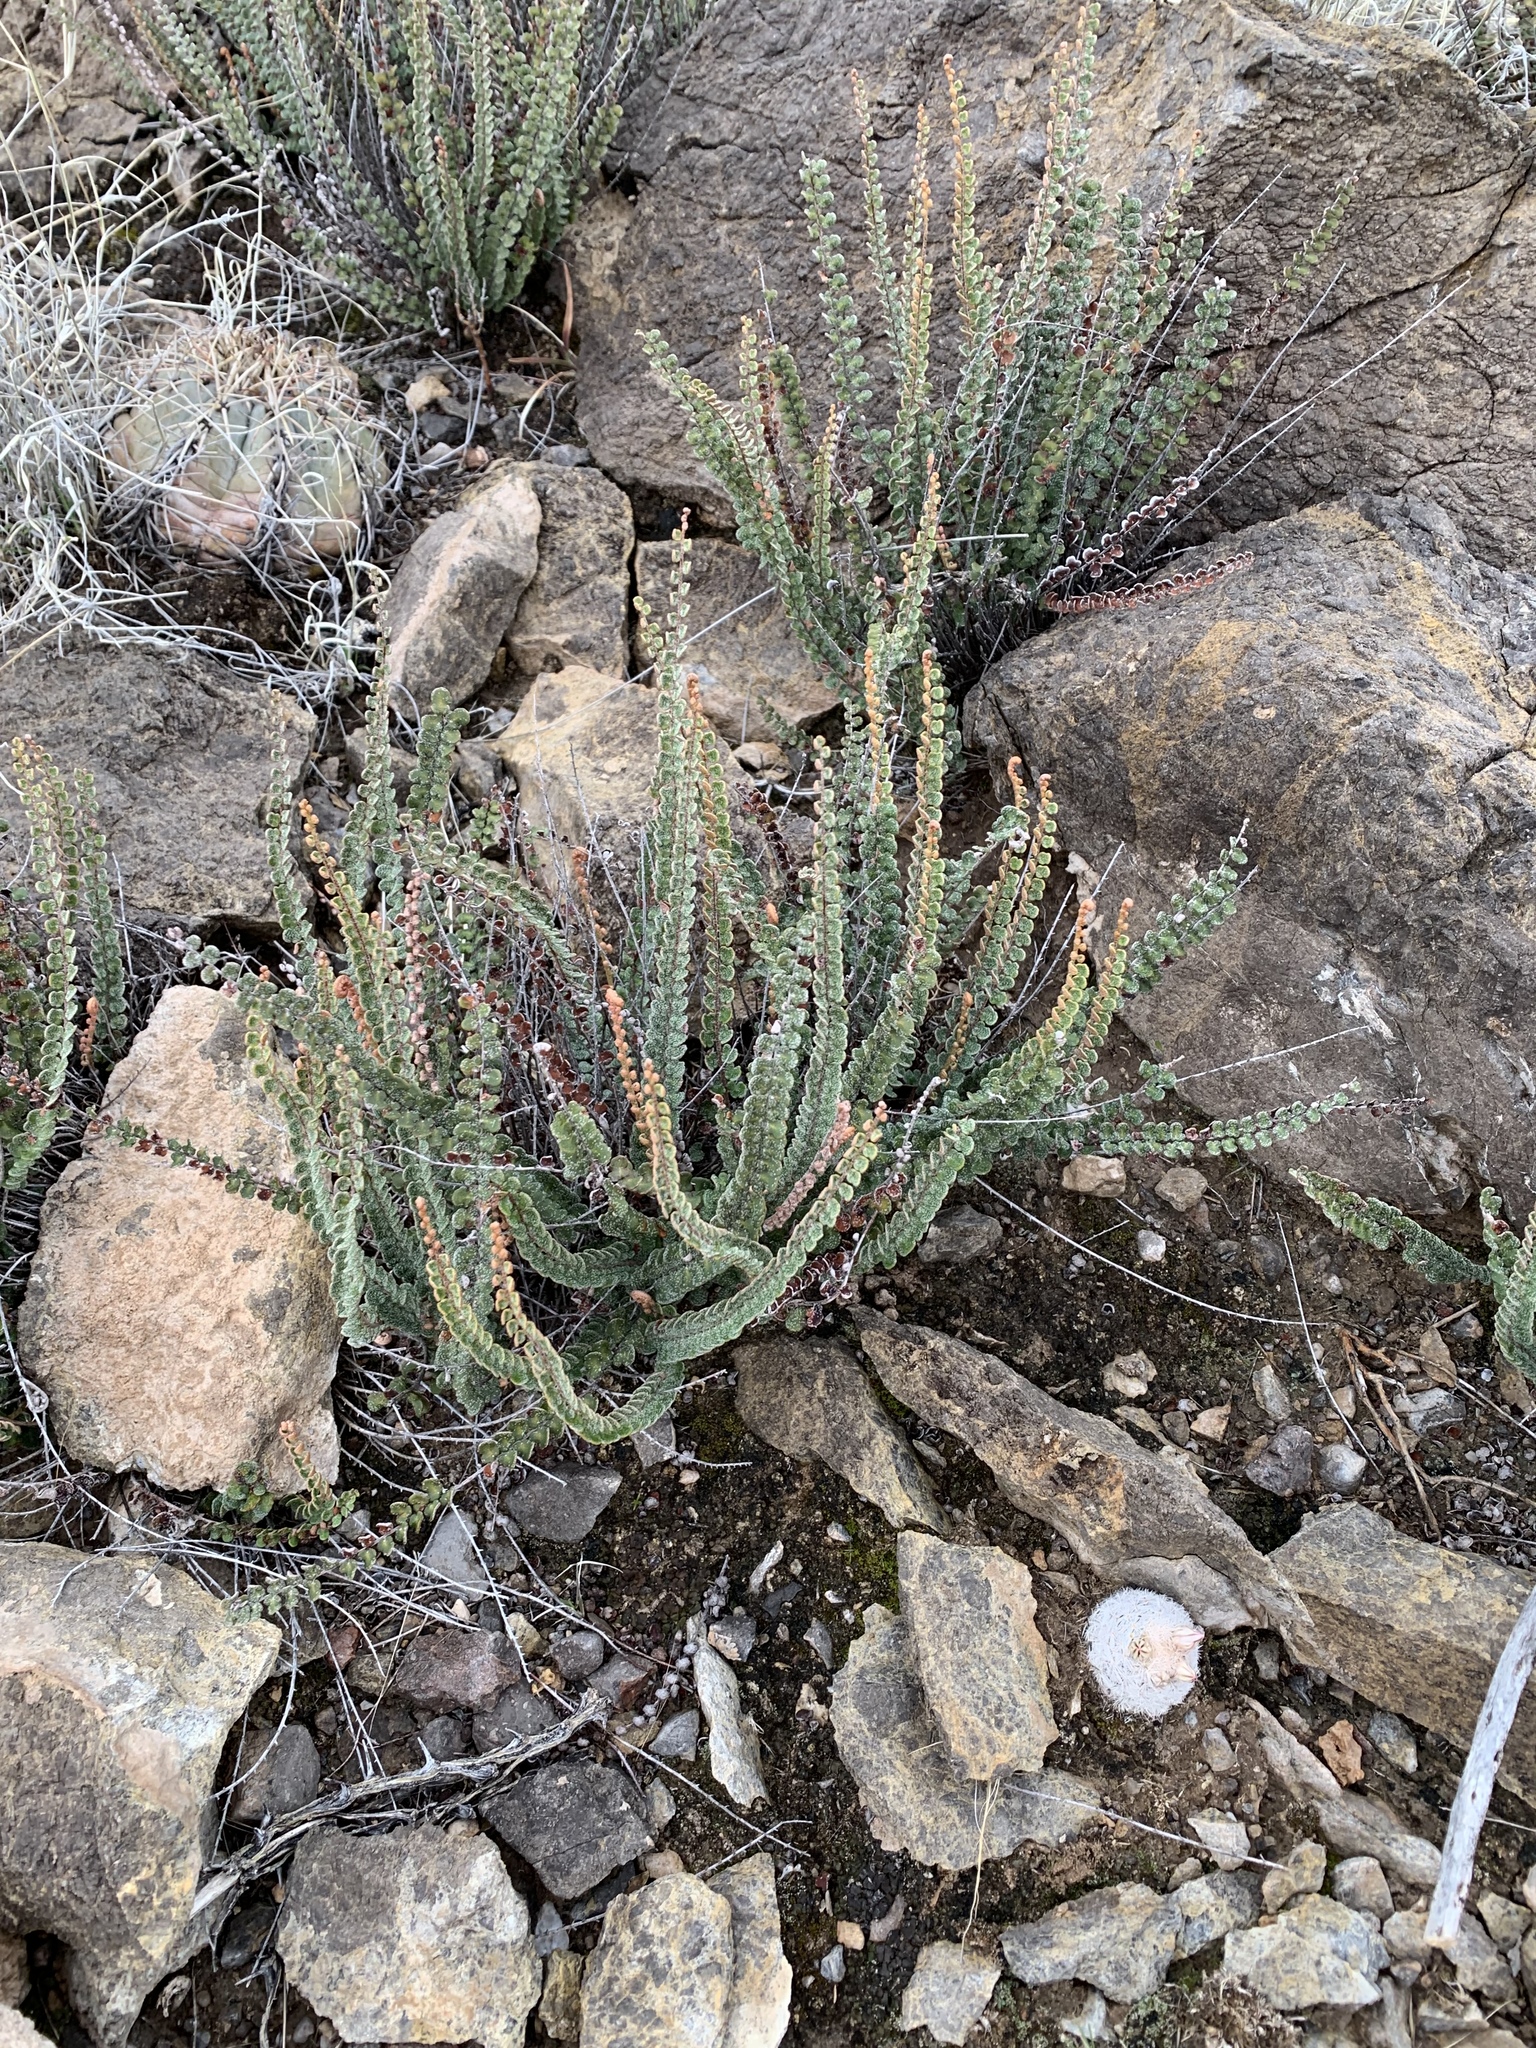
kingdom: Plantae
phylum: Tracheophyta
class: Polypodiopsida
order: Polypodiales
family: Pteridaceae
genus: Astrolepis
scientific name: Astrolepis cochisensis
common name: Scaly cloak fern
